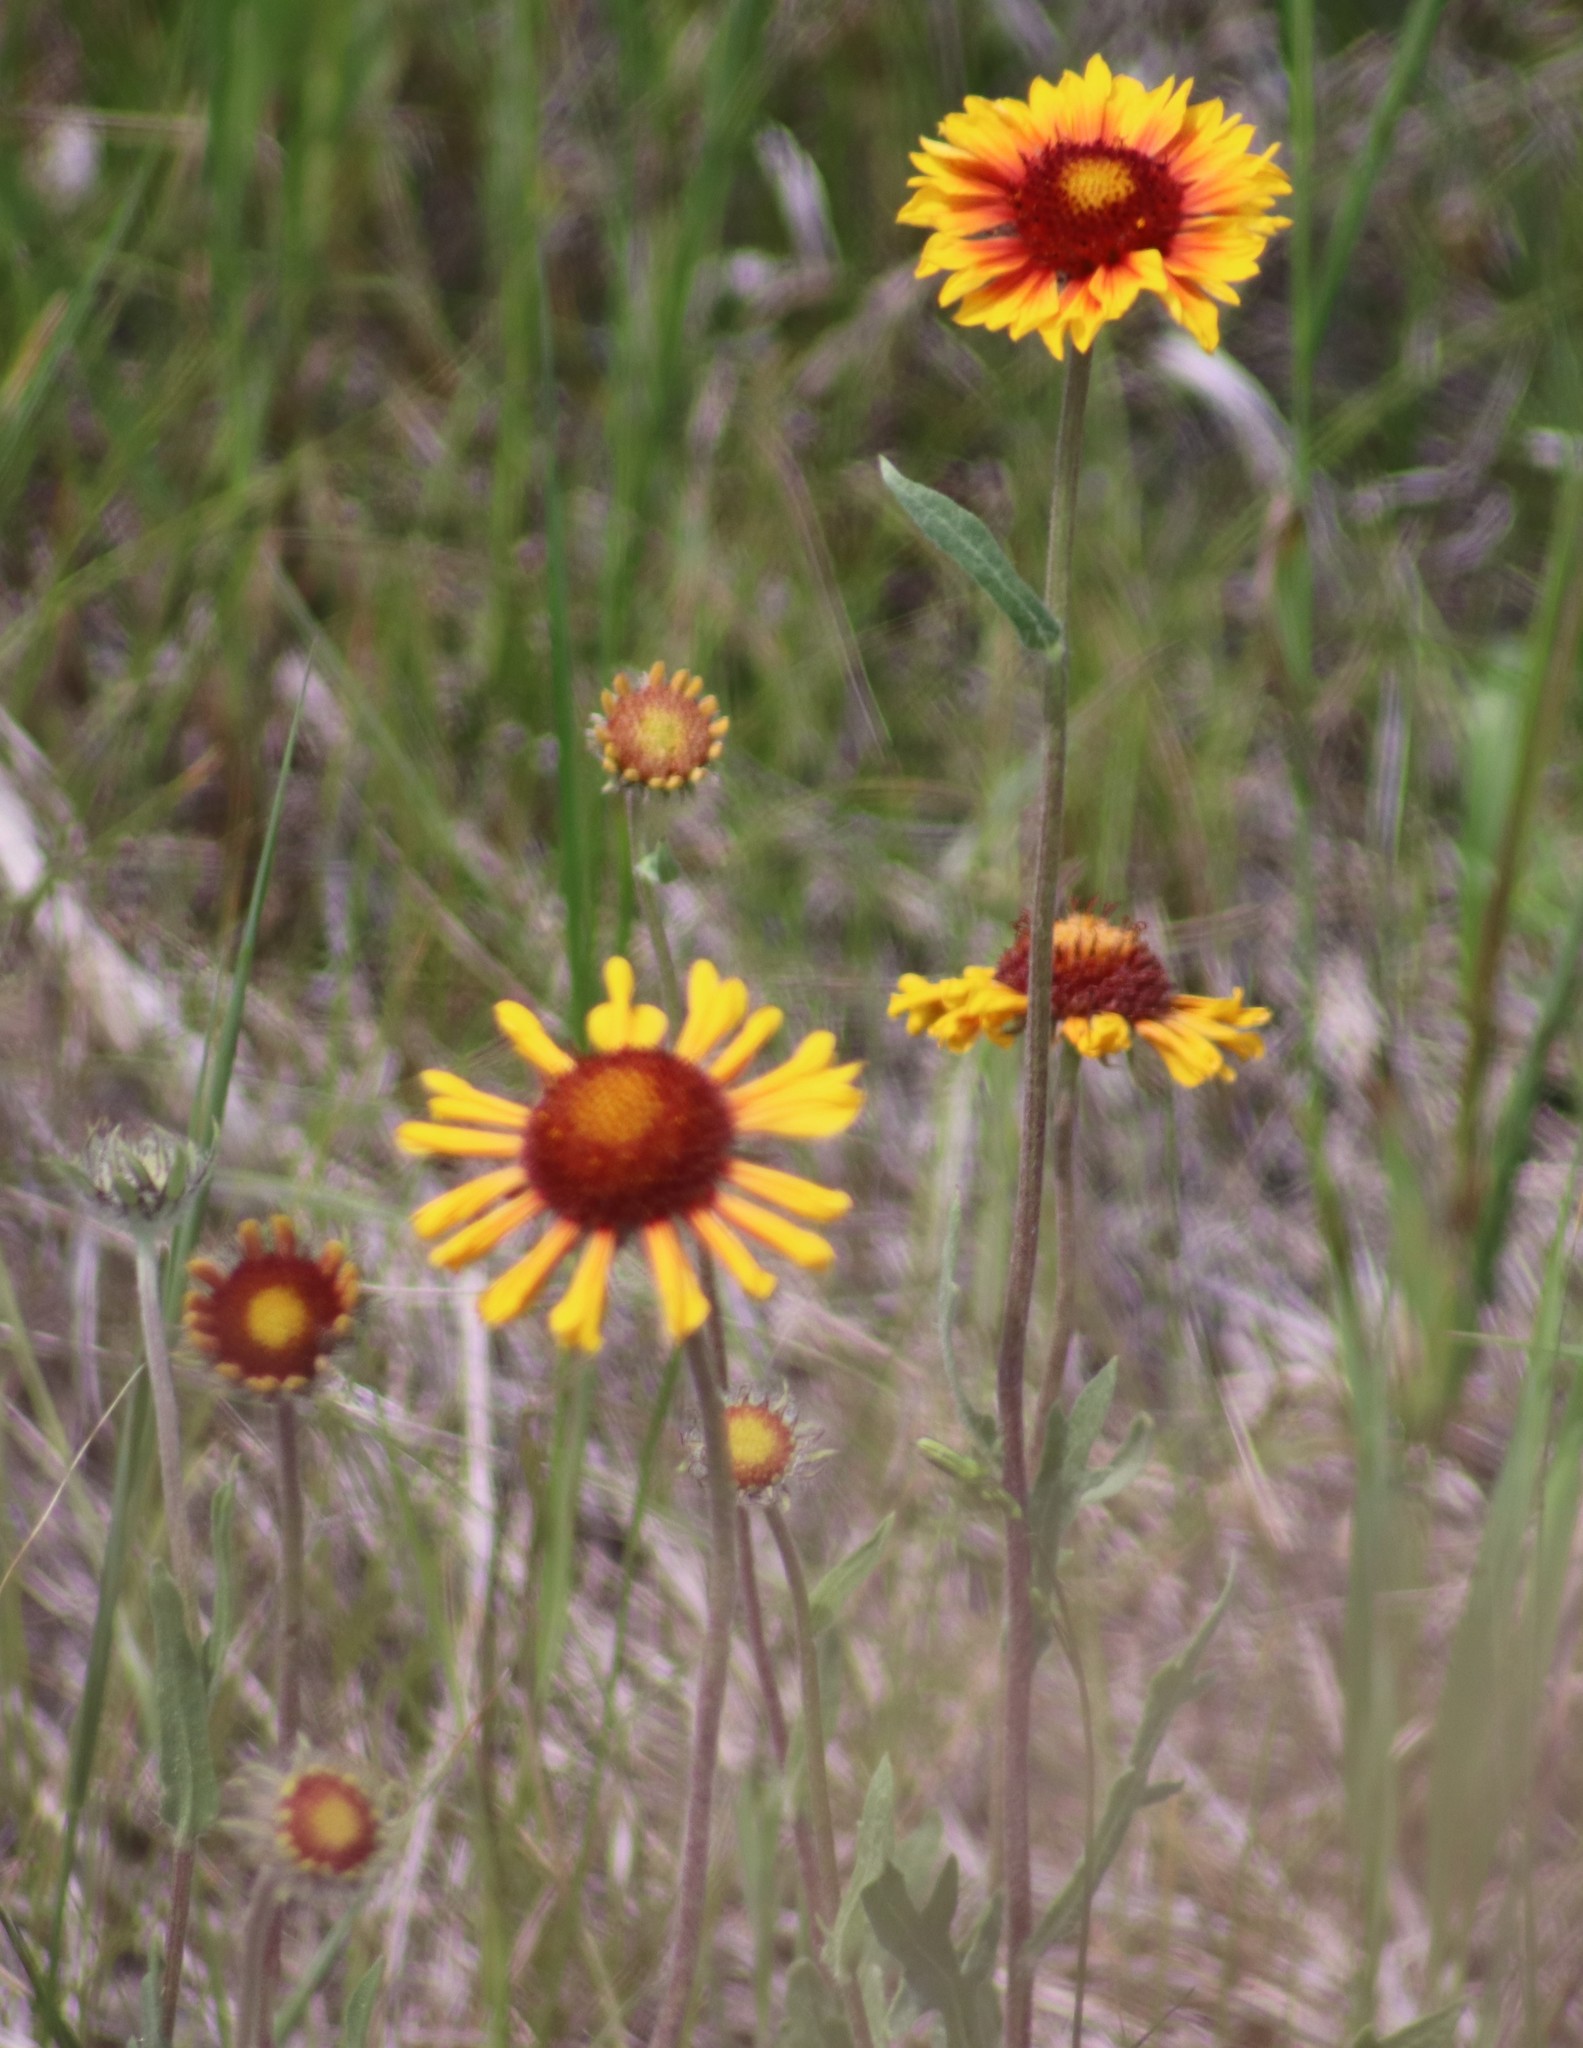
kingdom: Plantae
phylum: Tracheophyta
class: Magnoliopsida
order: Asterales
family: Asteraceae
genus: Gaillardia
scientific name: Gaillardia aristata
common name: Blanket-flower
